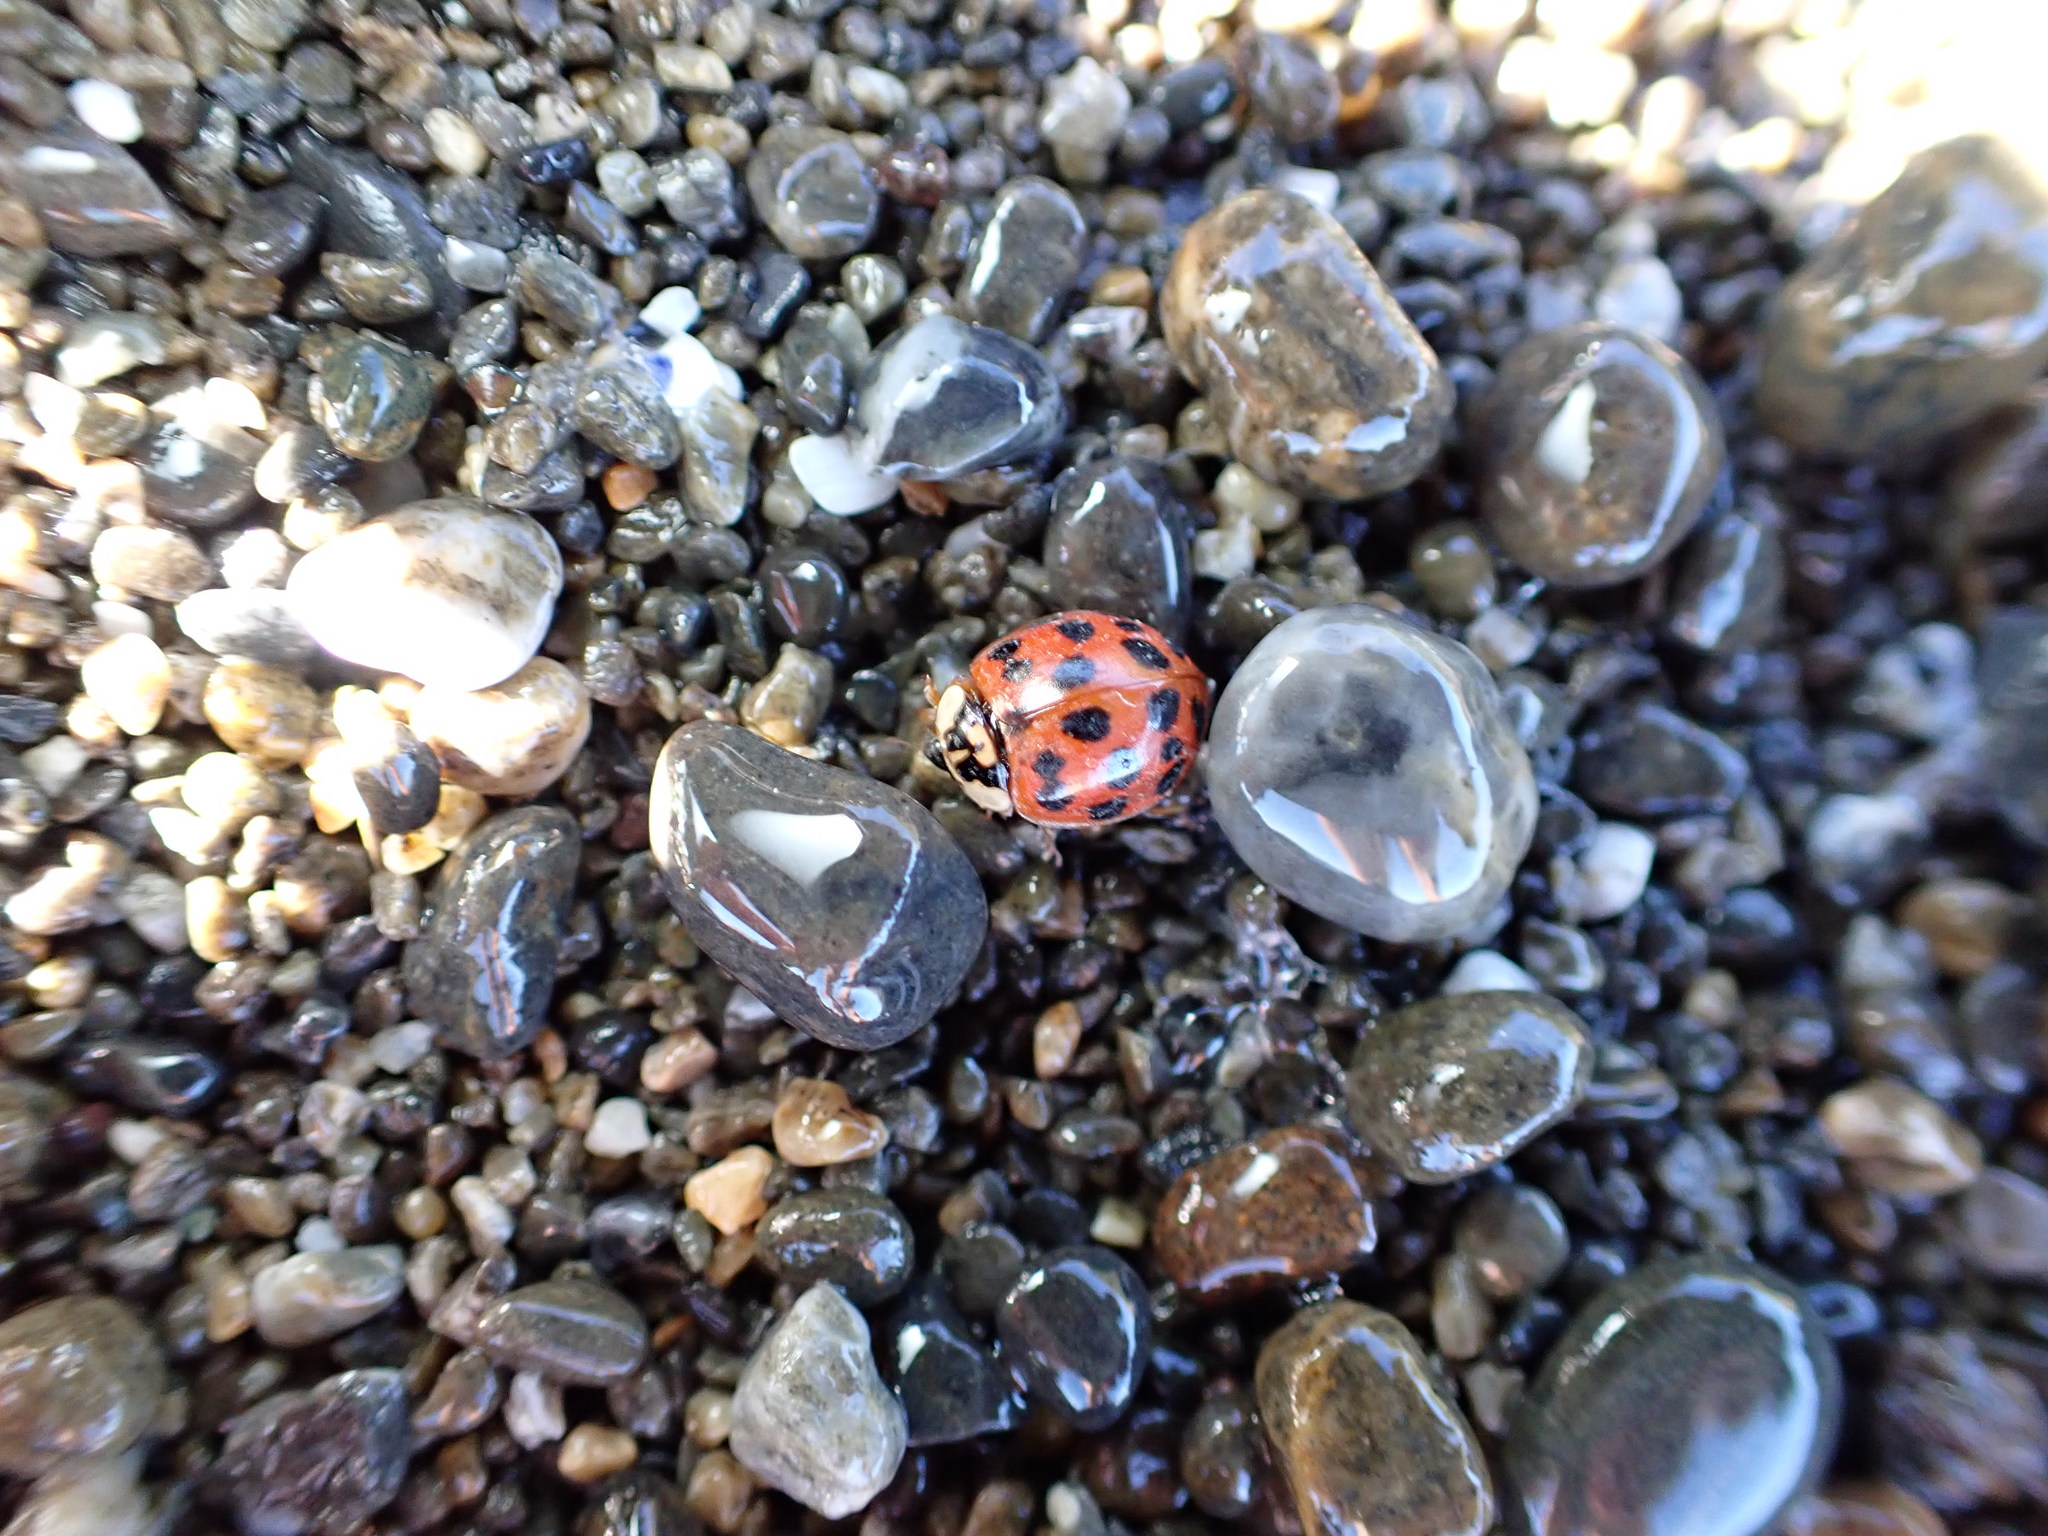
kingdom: Animalia
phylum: Arthropoda
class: Insecta
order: Coleoptera
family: Coccinellidae
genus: Harmonia
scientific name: Harmonia axyridis
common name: Harlequin ladybird
